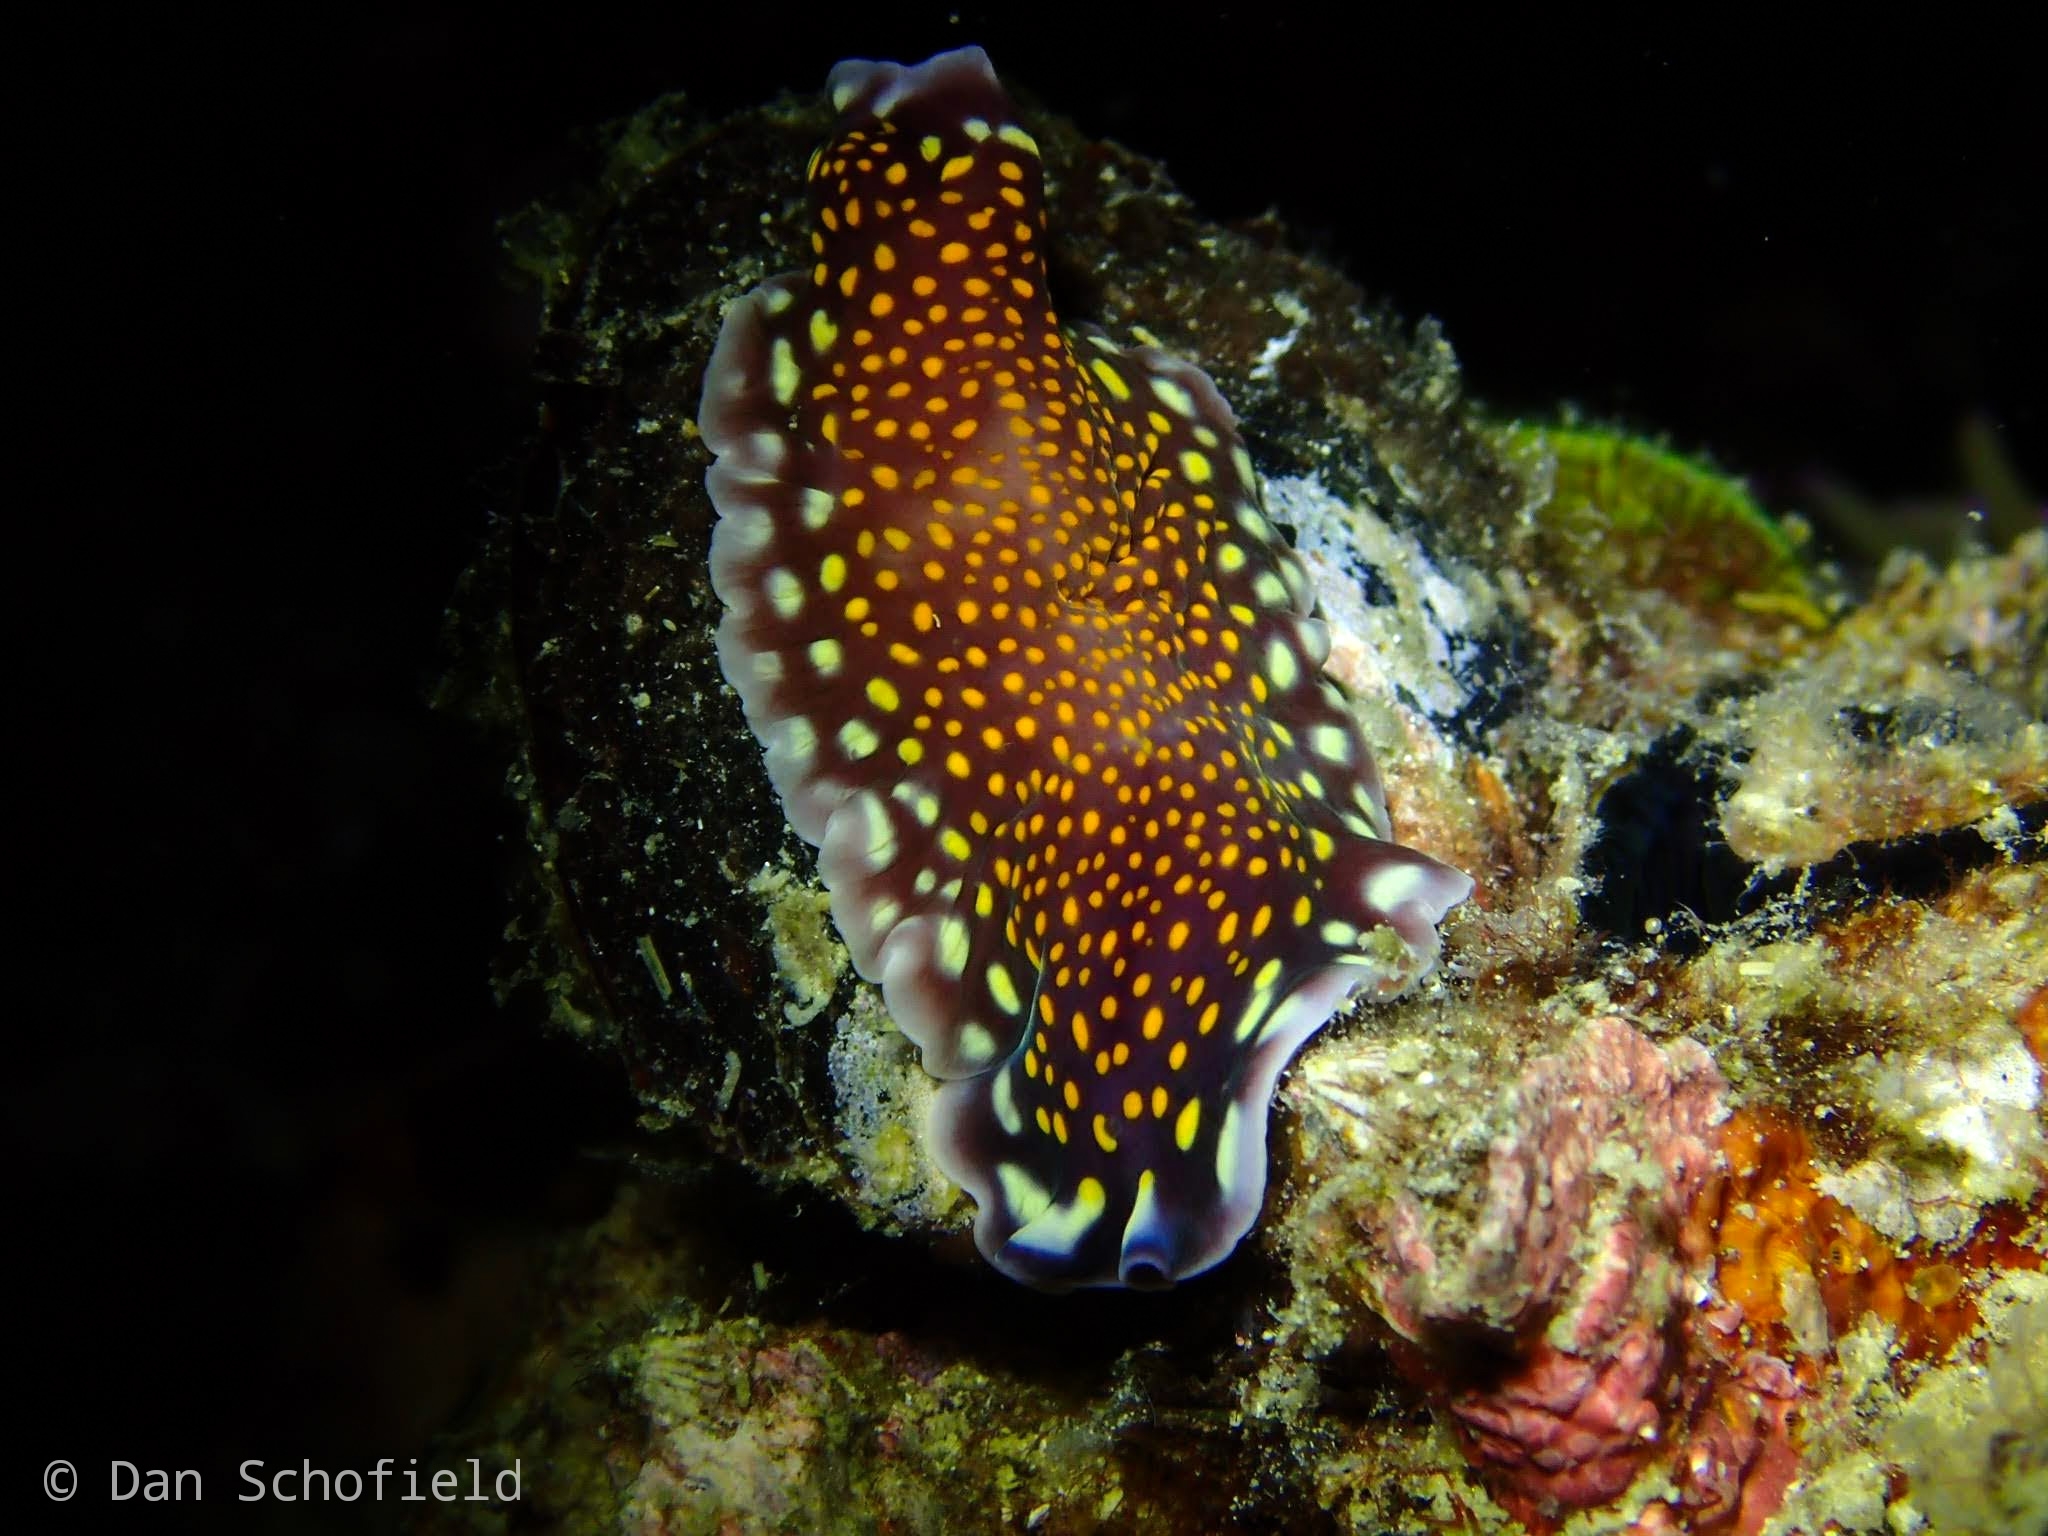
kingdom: Animalia
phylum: Platyhelminthes
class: Turbellaria
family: Pseudocerotidae
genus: Pseudoceros
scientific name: Pseudoceros lindae
